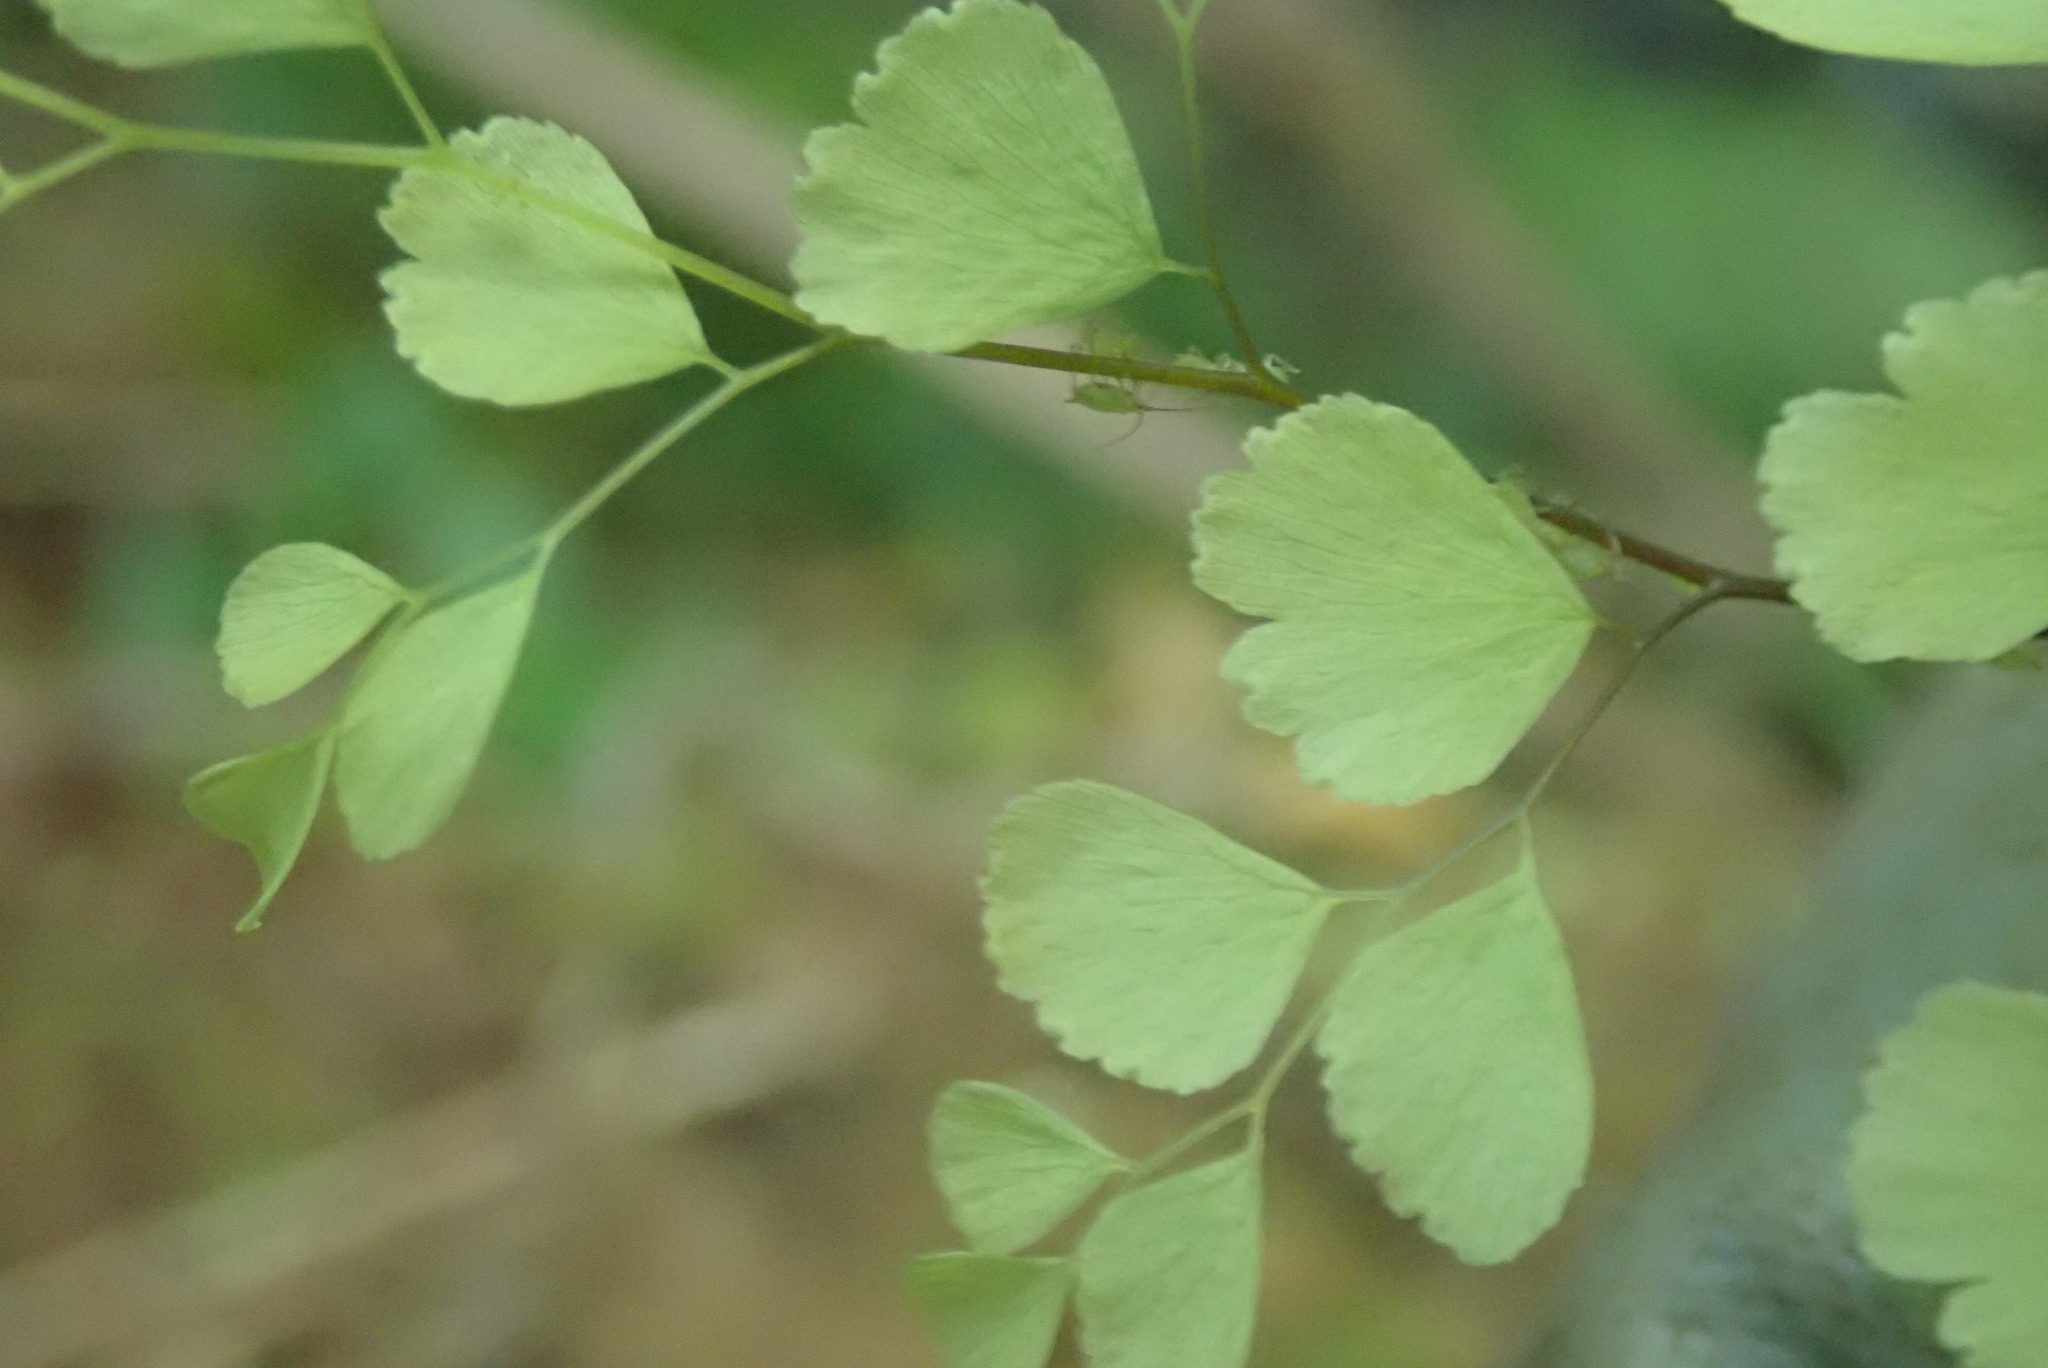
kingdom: Plantae
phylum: Tracheophyta
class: Polypodiopsida
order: Polypodiales
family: Pteridaceae
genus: Adiantum
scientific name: Adiantum raddianum
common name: Delta maidenhair fern
